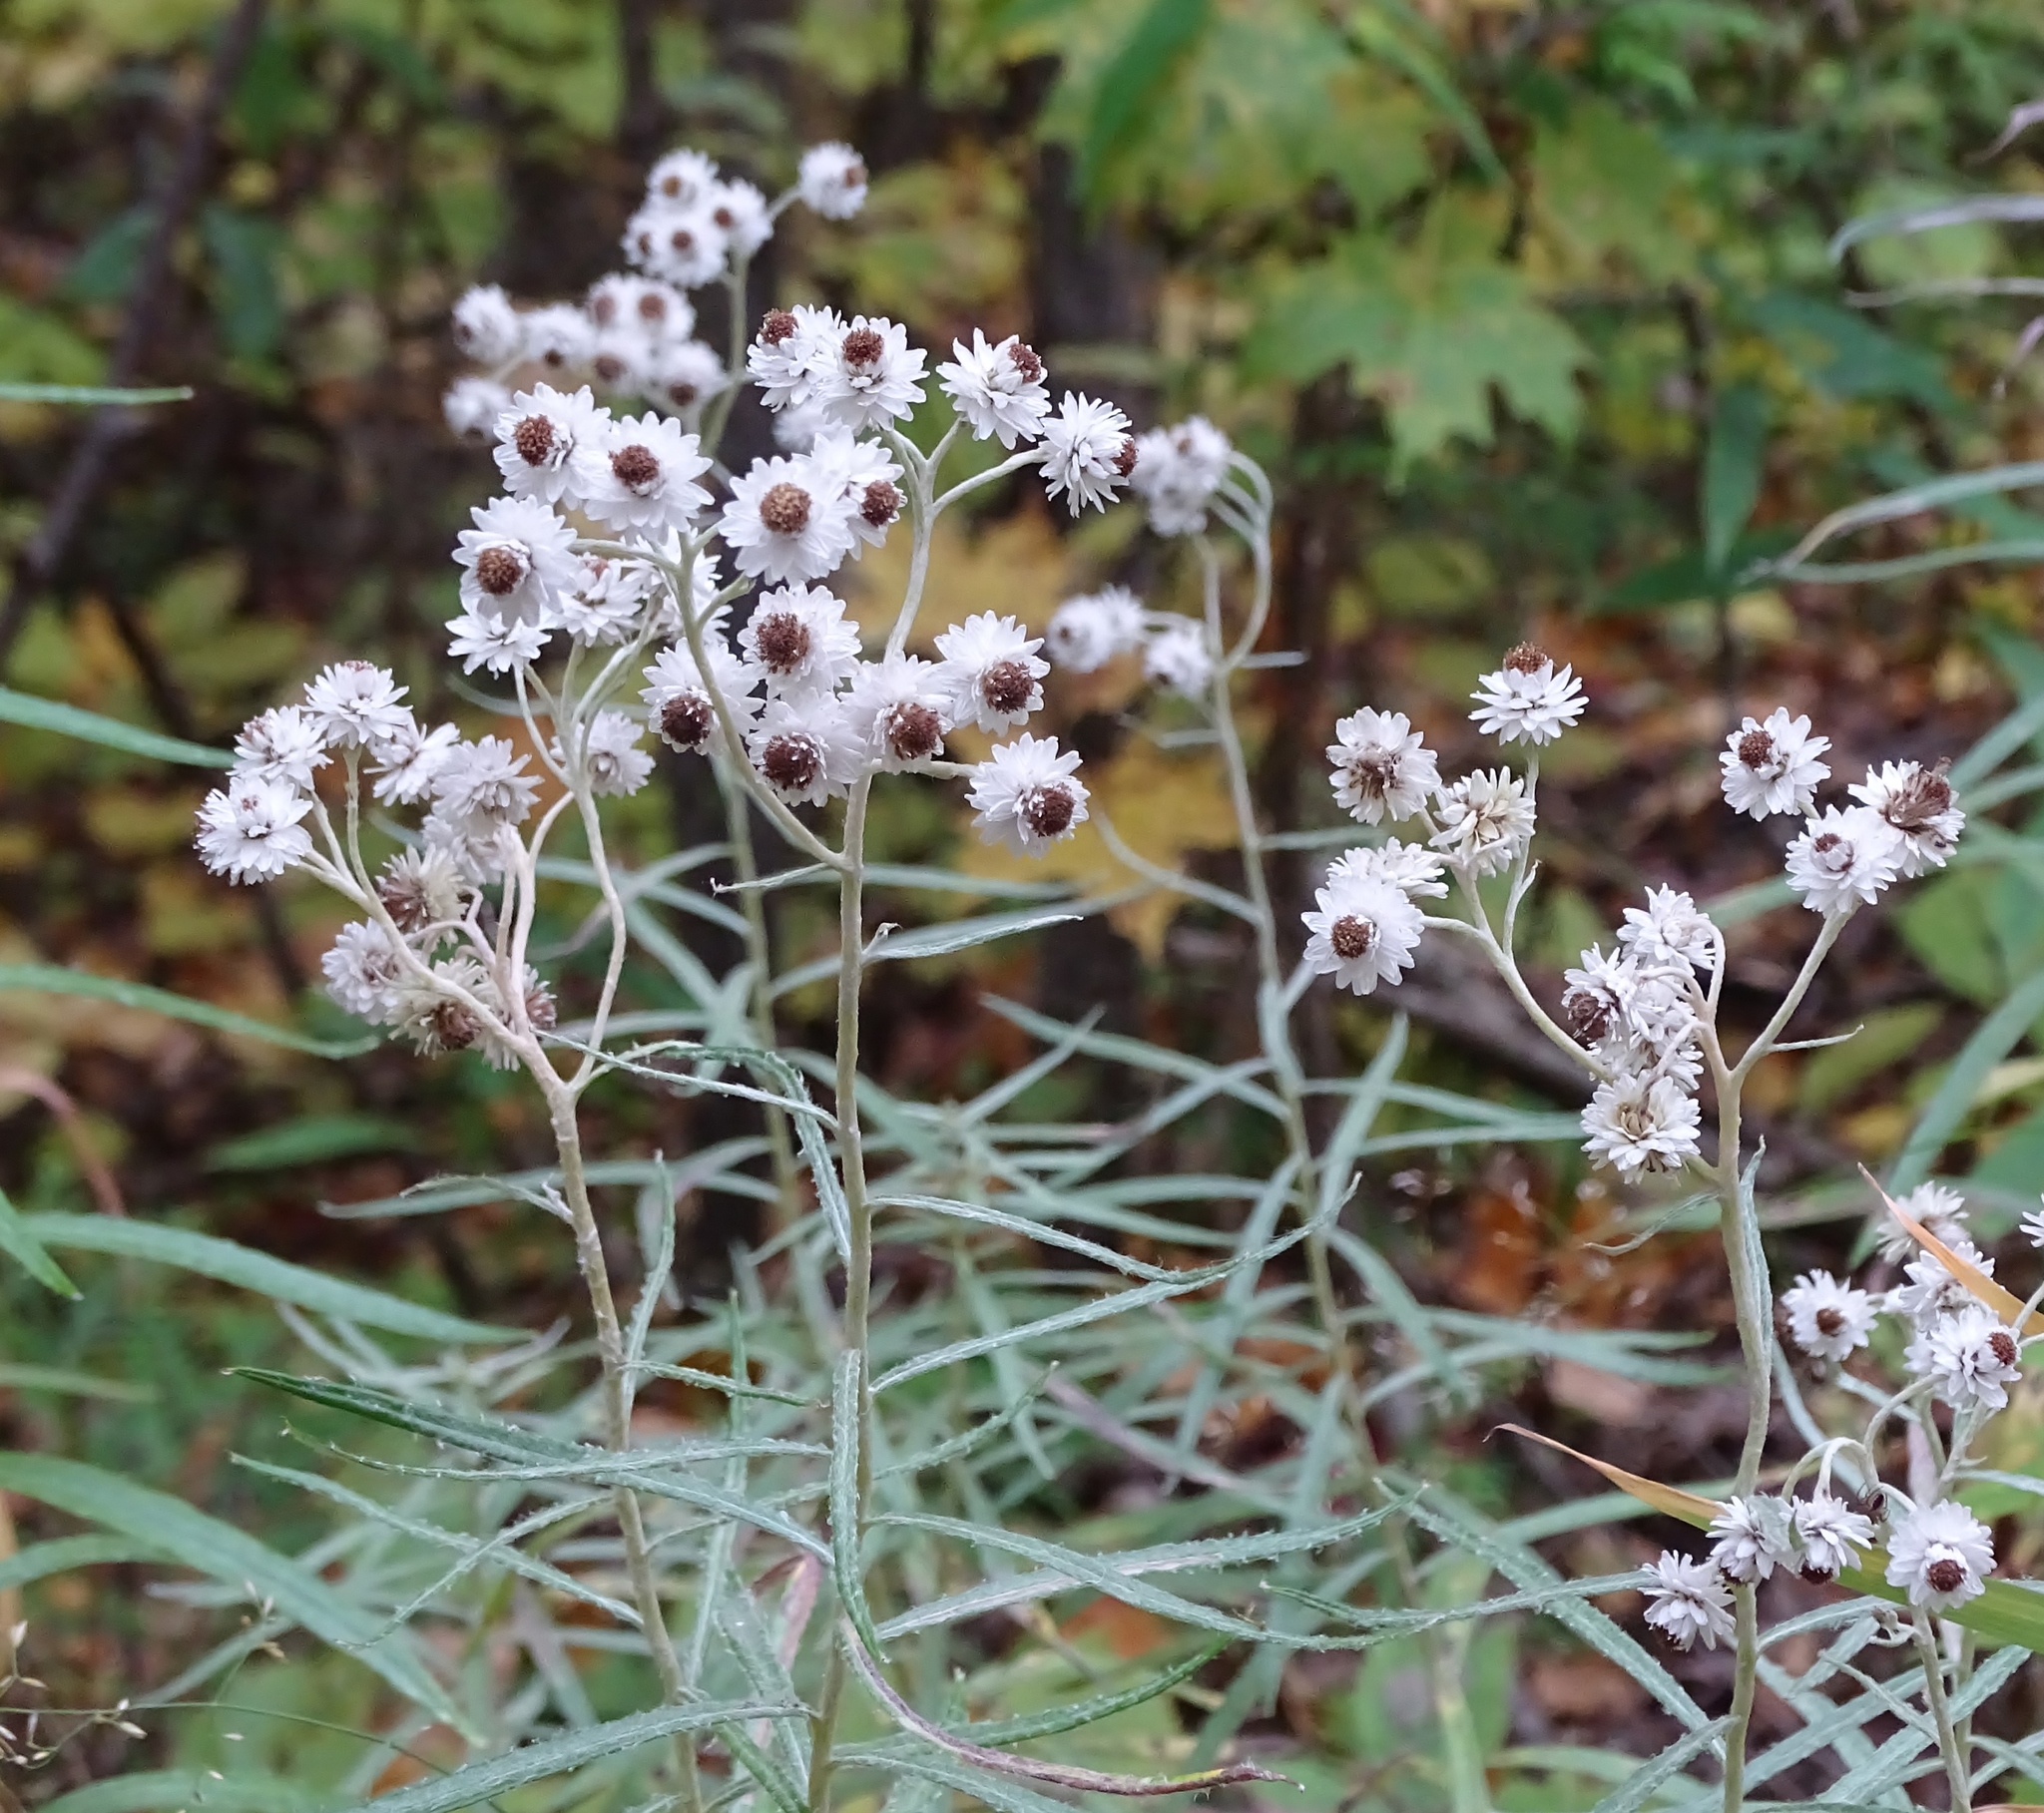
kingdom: Plantae
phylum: Tracheophyta
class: Magnoliopsida
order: Asterales
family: Asteraceae
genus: Anaphalis
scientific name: Anaphalis margaritacea
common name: Pearly everlasting
